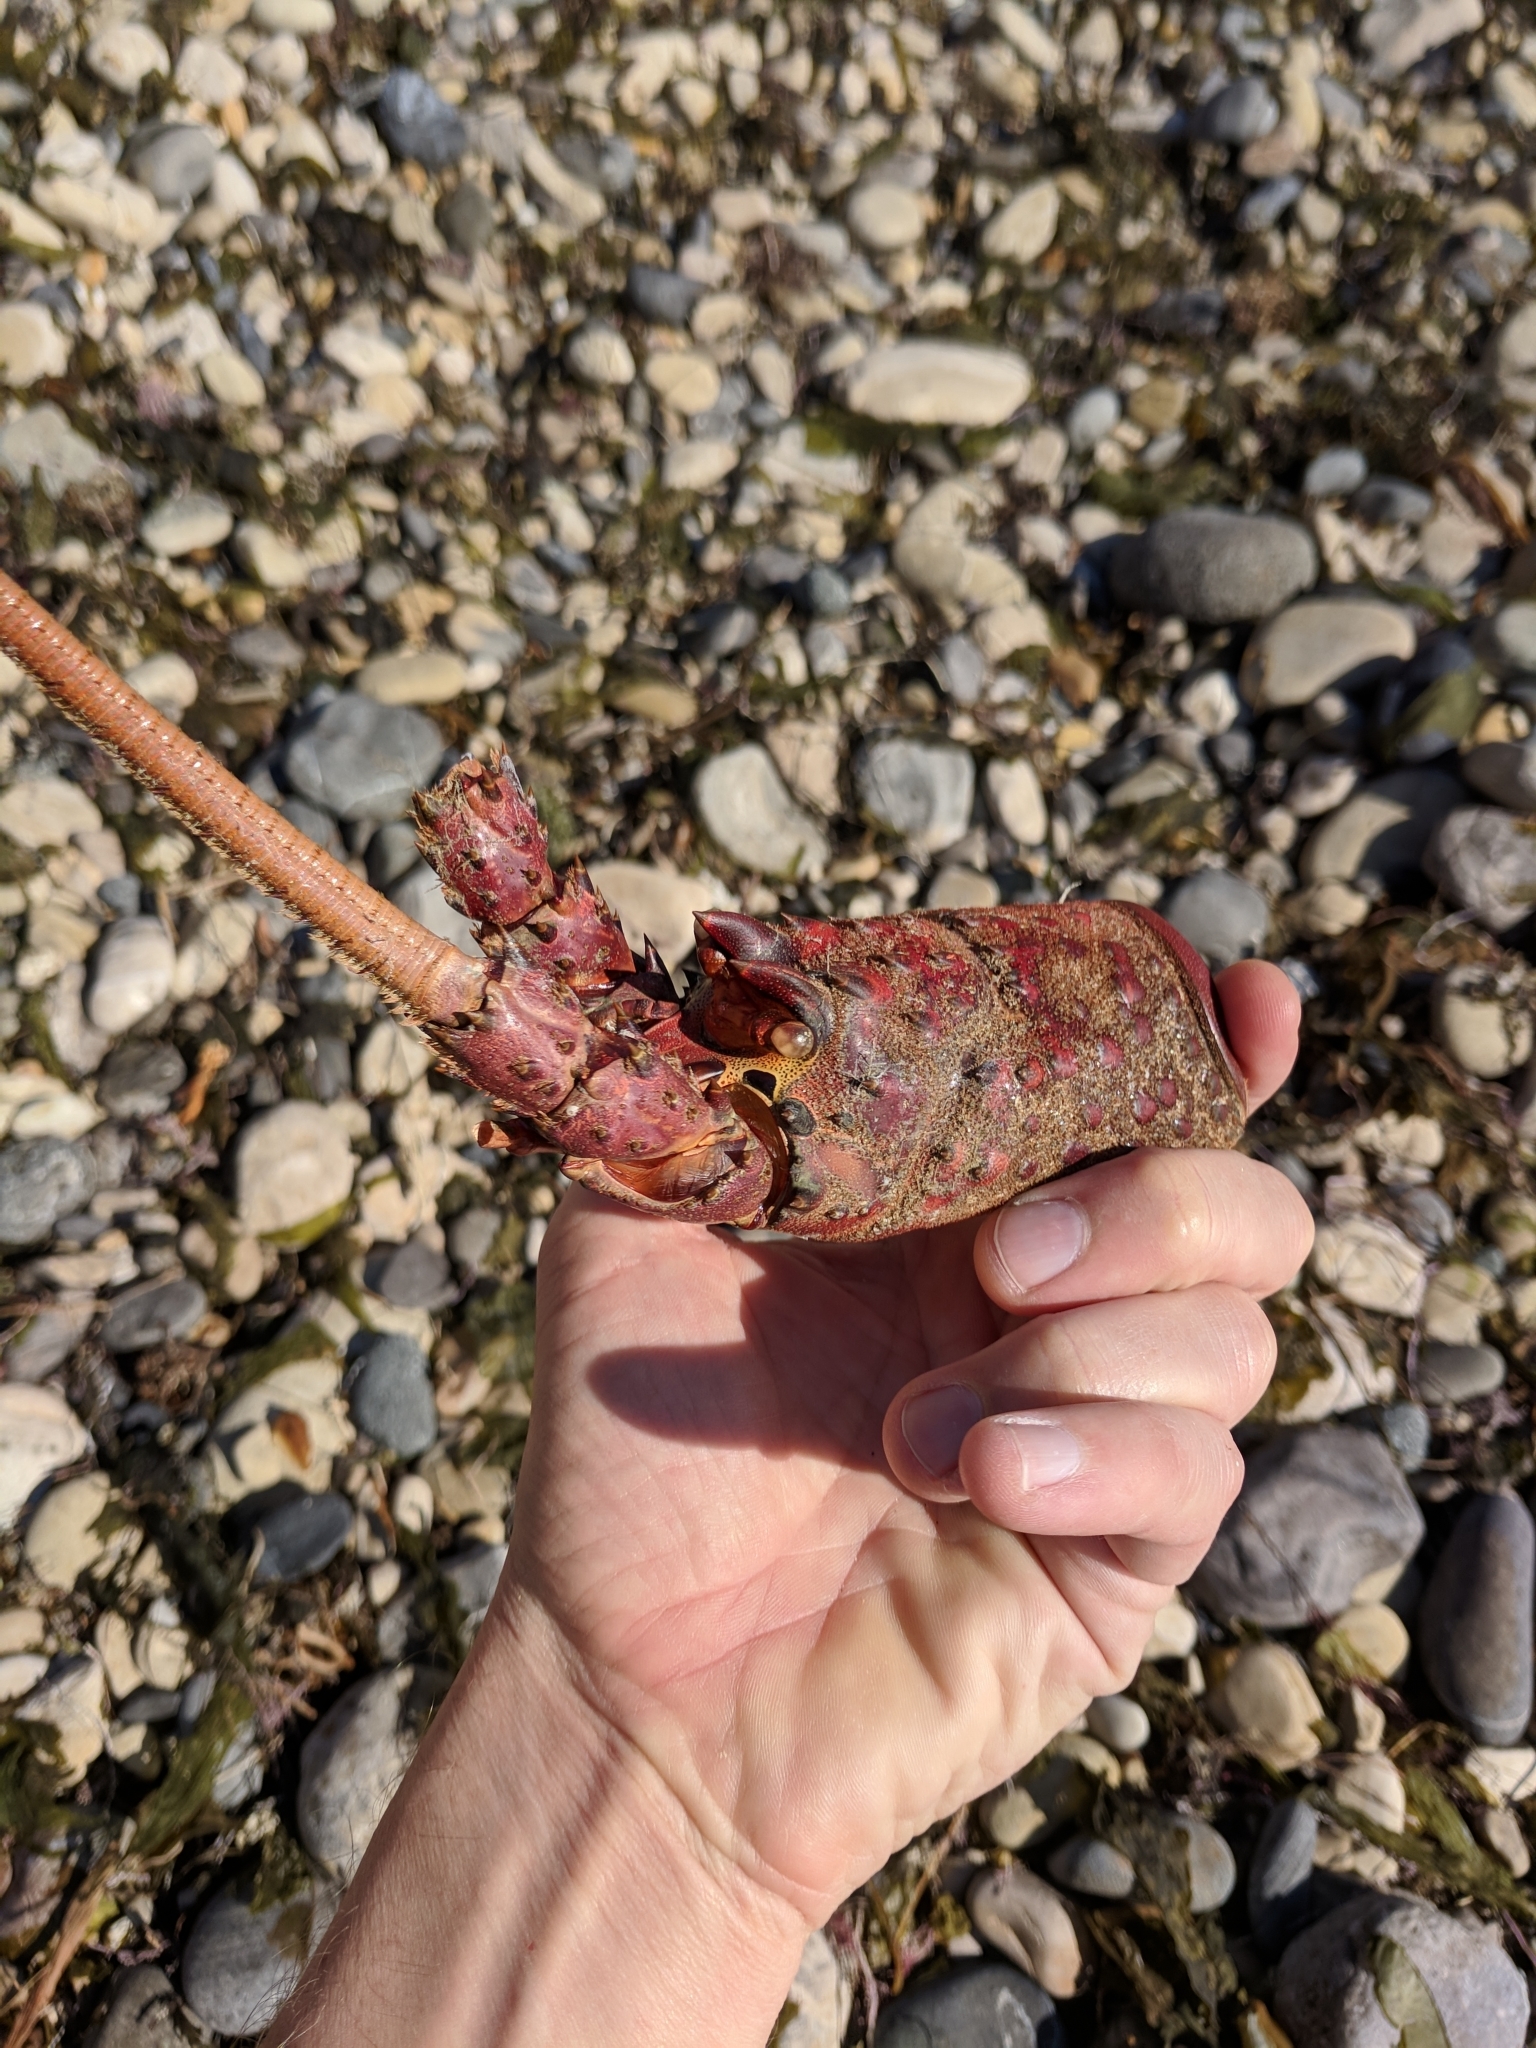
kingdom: Animalia
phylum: Arthropoda
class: Malacostraca
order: Decapoda
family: Palinuridae
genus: Panulirus
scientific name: Panulirus interruptus
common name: California spiny lobster
